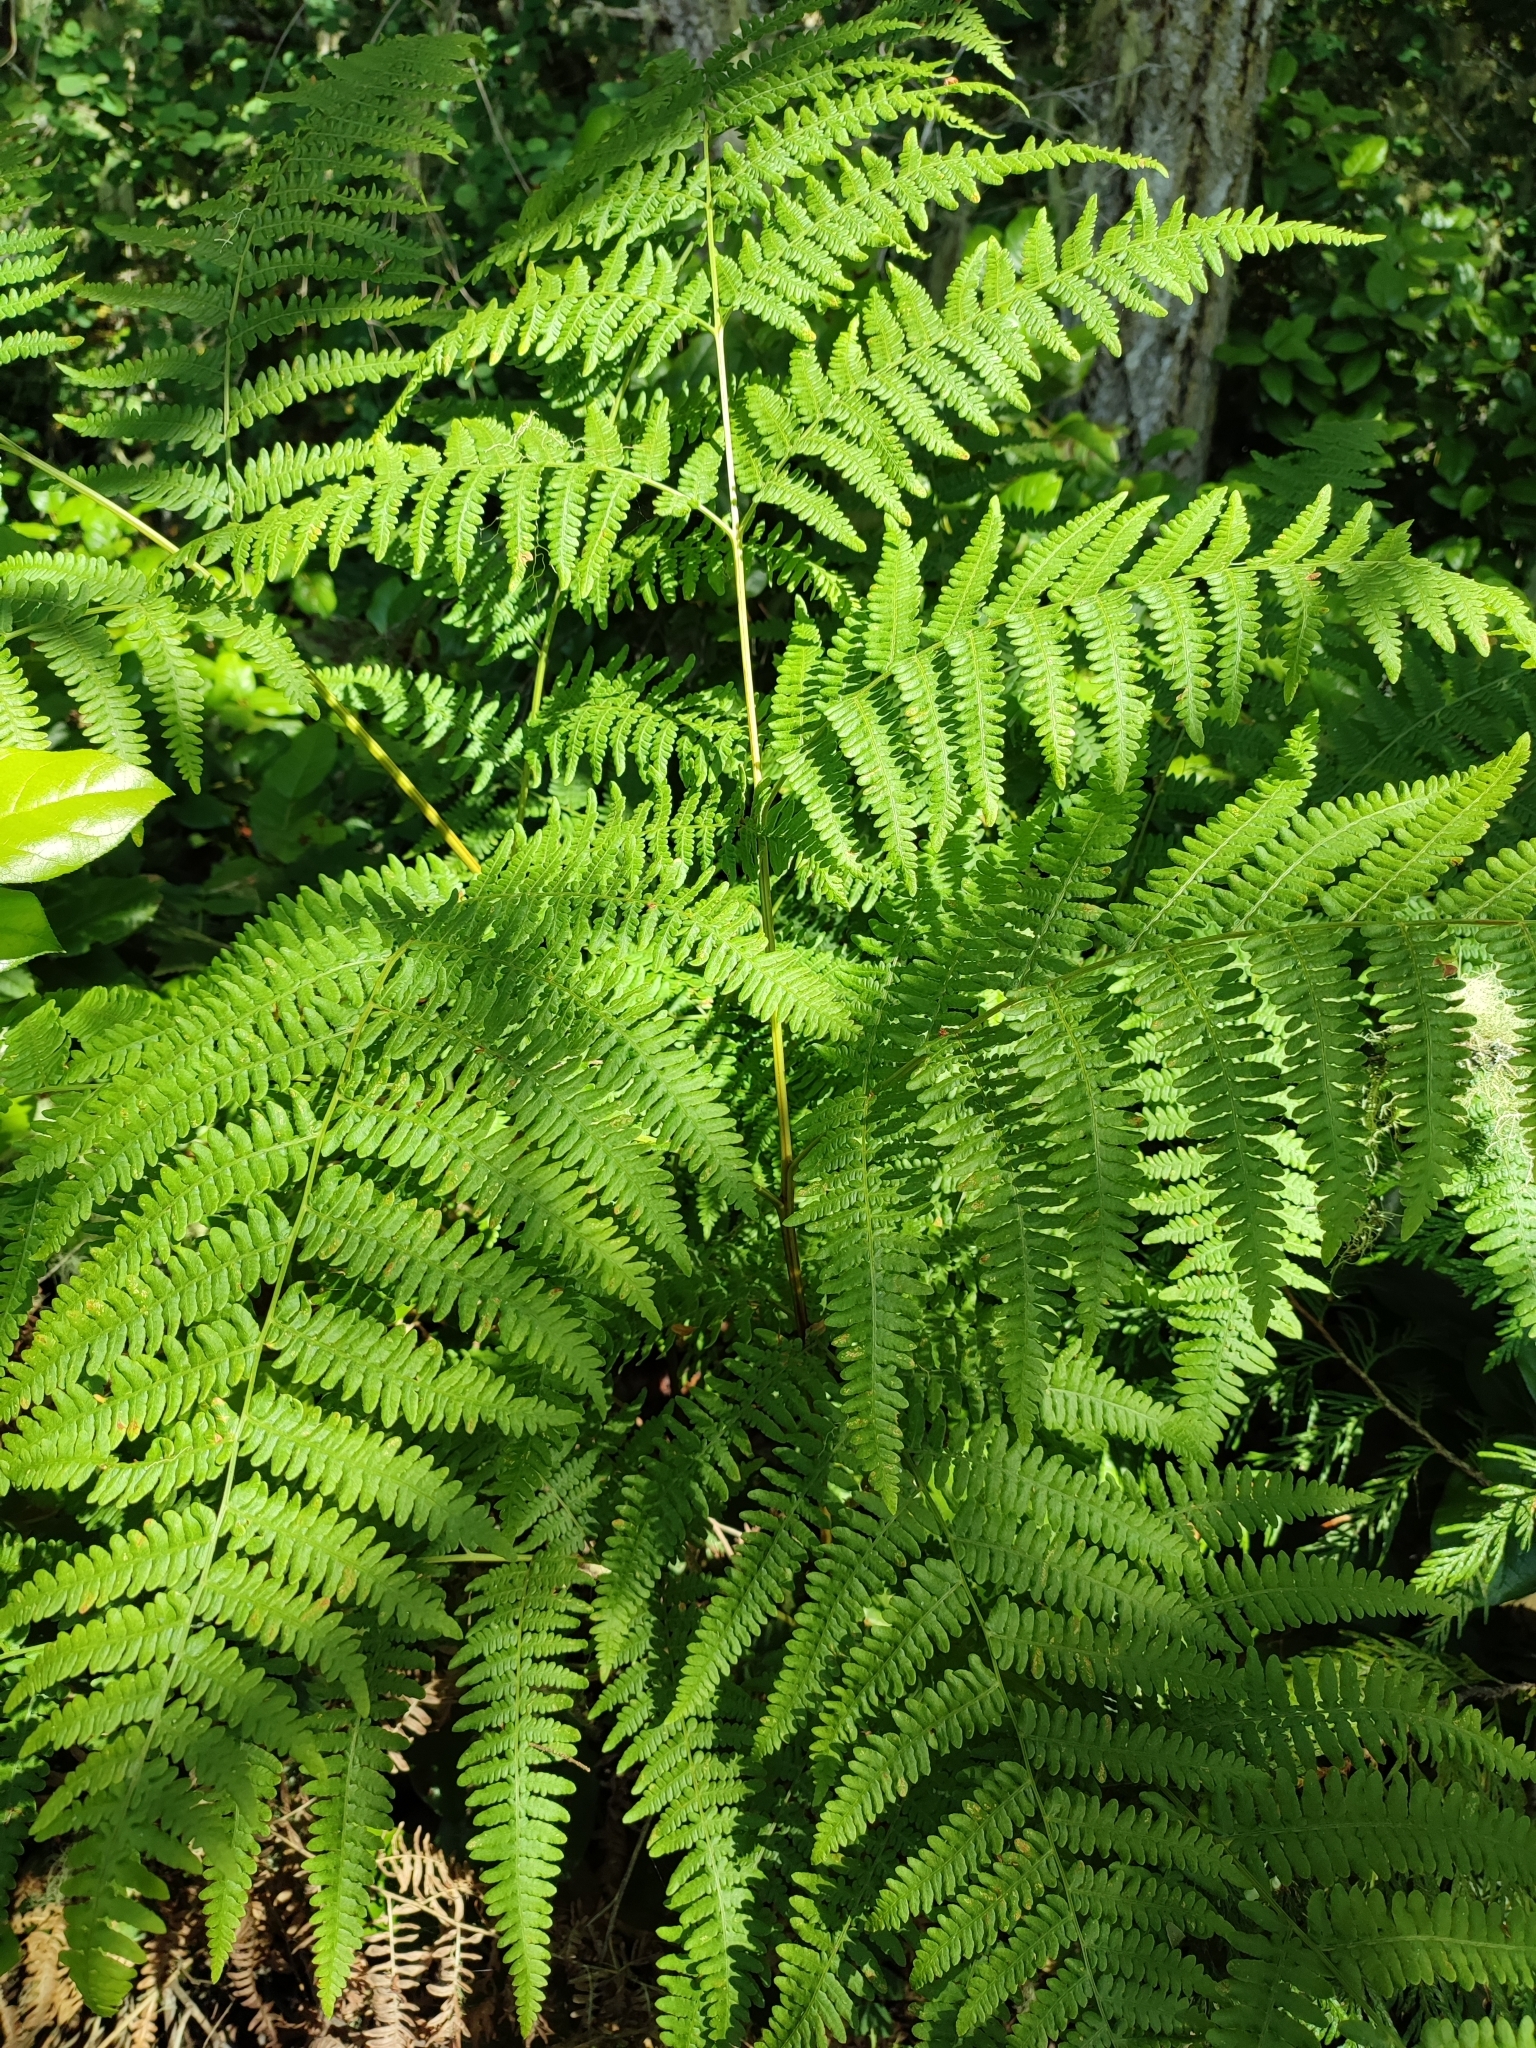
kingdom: Plantae
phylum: Tracheophyta
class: Polypodiopsida
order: Polypodiales
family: Dennstaedtiaceae
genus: Pteridium
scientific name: Pteridium aquilinum
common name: Bracken
